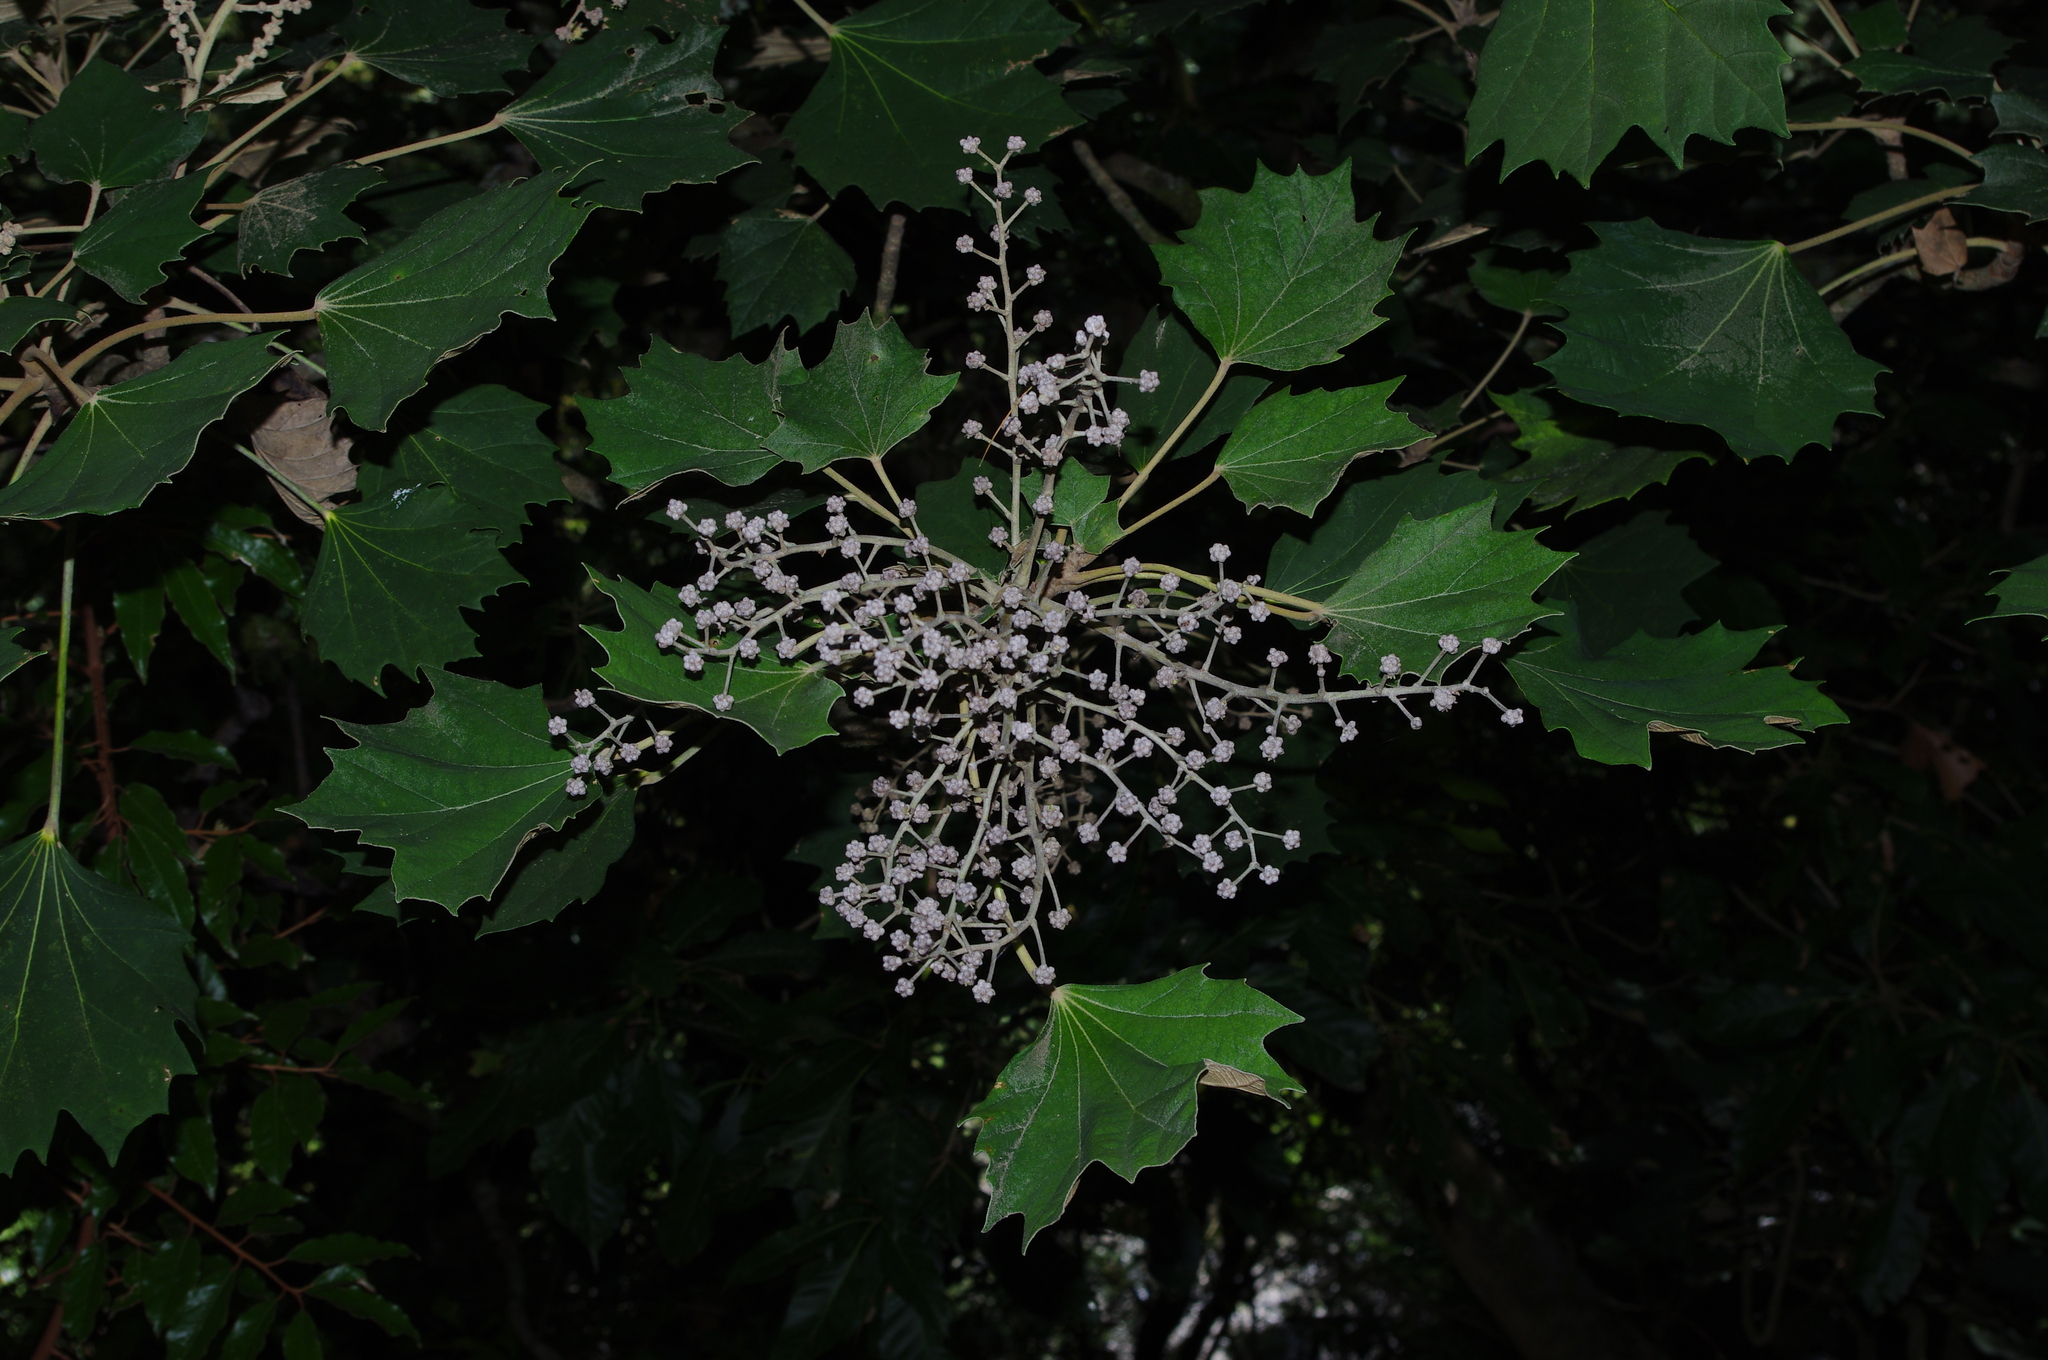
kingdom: Plantae
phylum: Tracheophyta
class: Magnoliopsida
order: Apiales
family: Araliaceae
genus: Sinopanax
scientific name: Sinopanax formosanus
